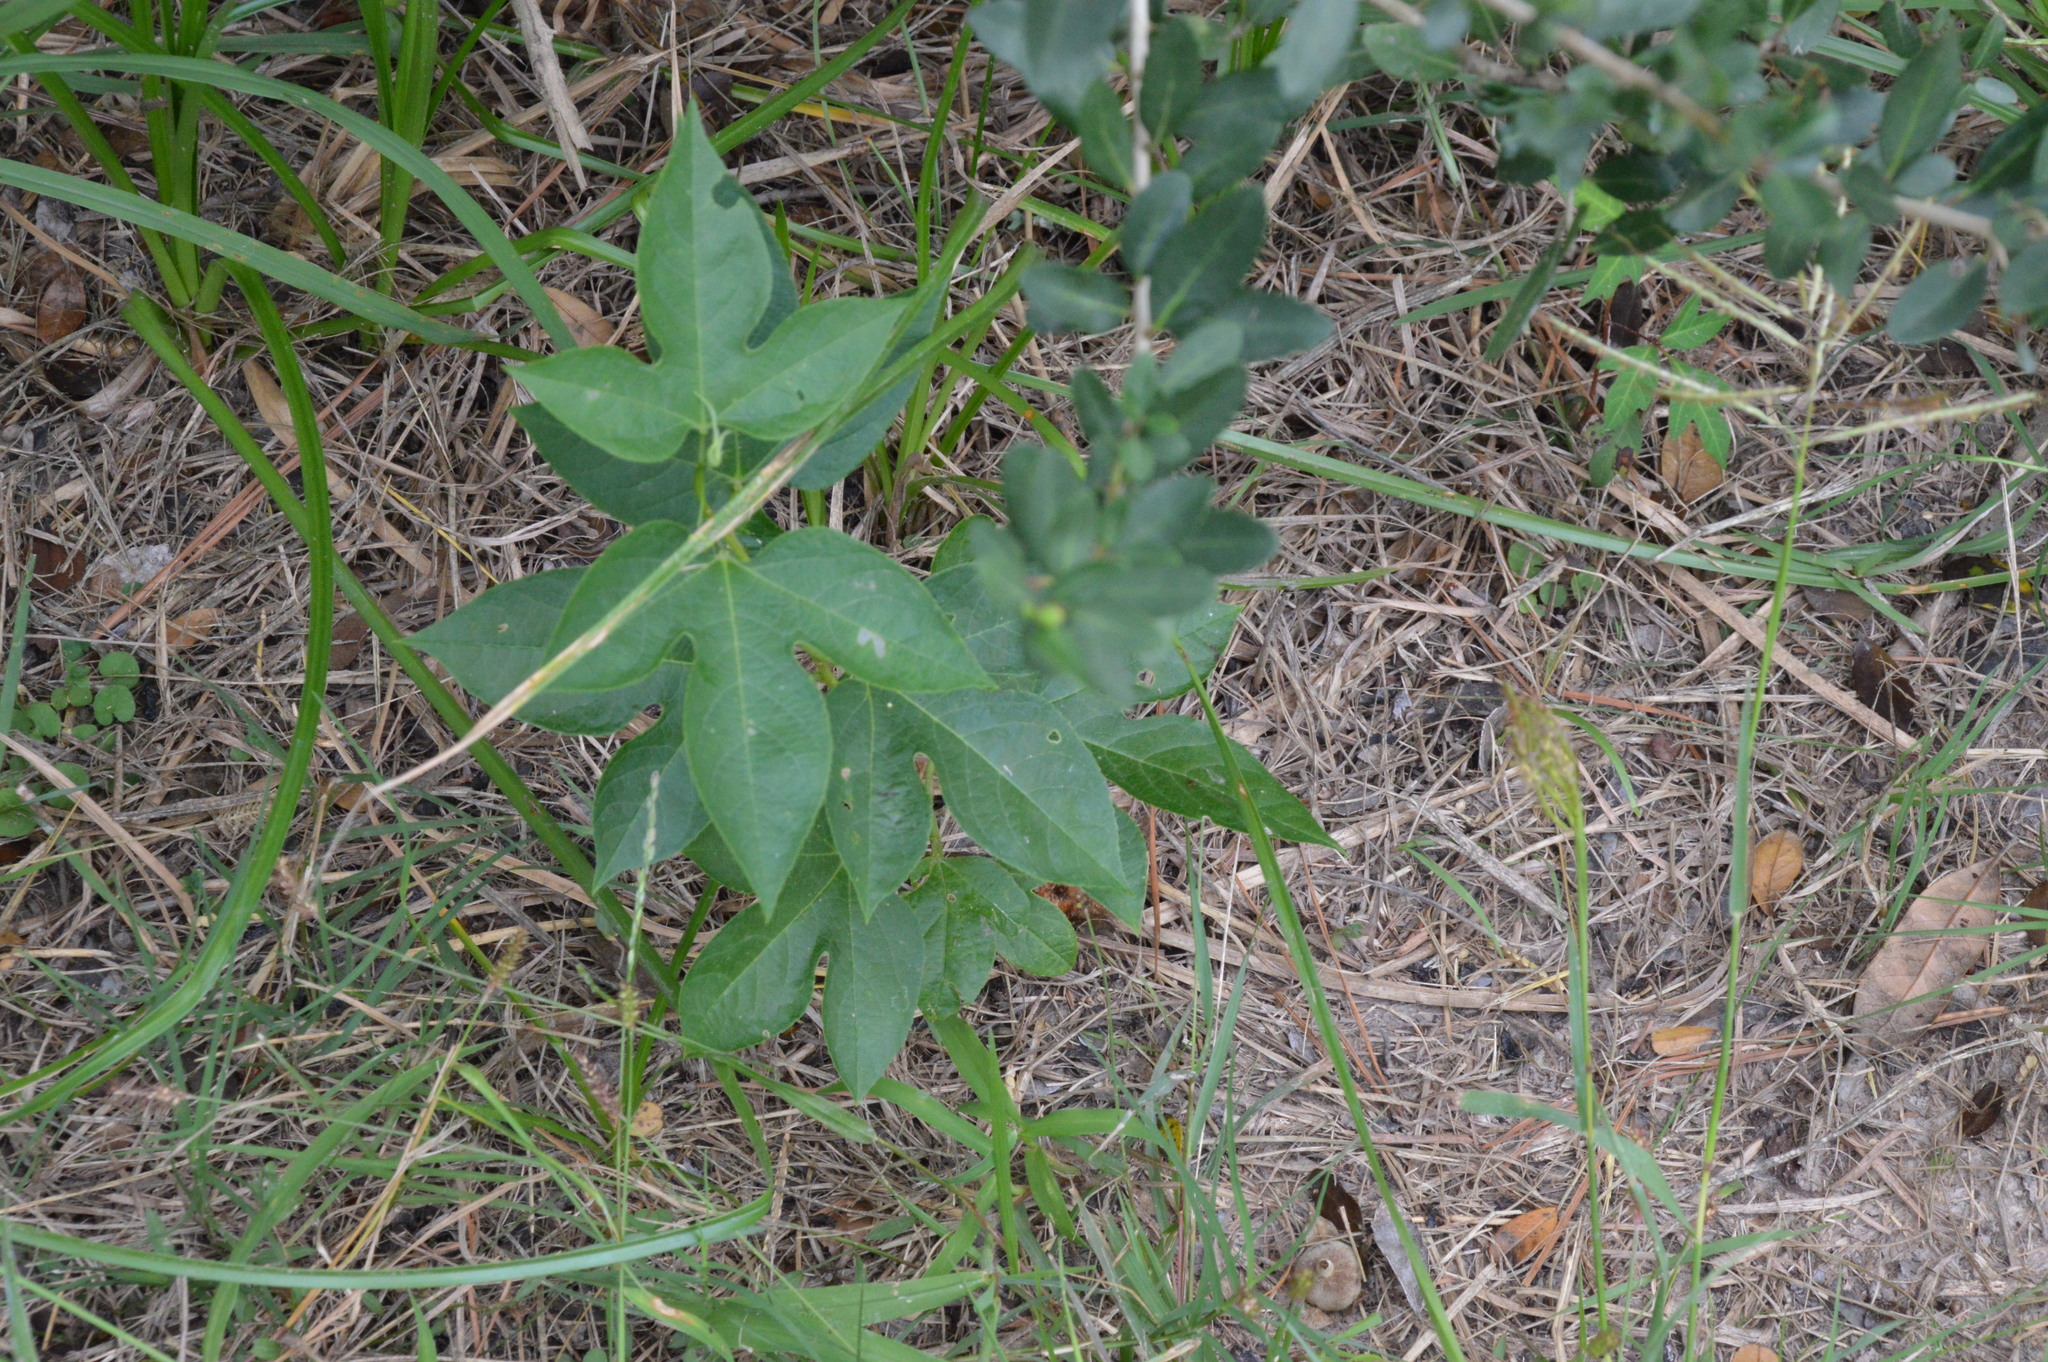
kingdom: Plantae
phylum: Tracheophyta
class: Magnoliopsida
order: Malpighiales
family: Passifloraceae
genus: Passiflora
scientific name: Passiflora incarnata
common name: Apricot-vine
